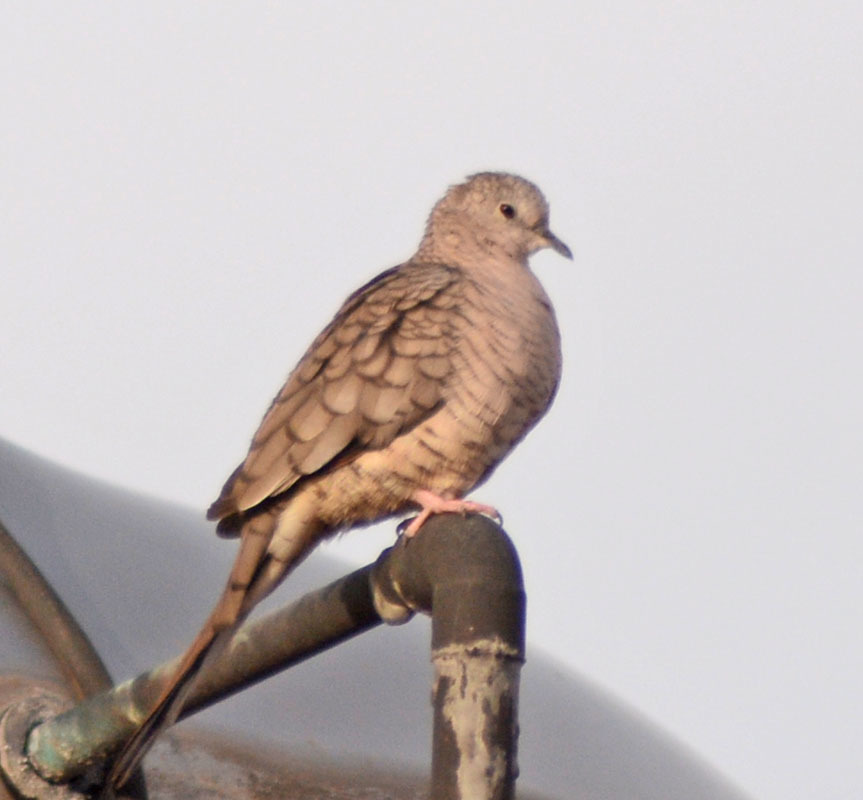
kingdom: Animalia
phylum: Chordata
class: Aves
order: Columbiformes
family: Columbidae
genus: Columbina
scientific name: Columbina inca
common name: Inca dove
